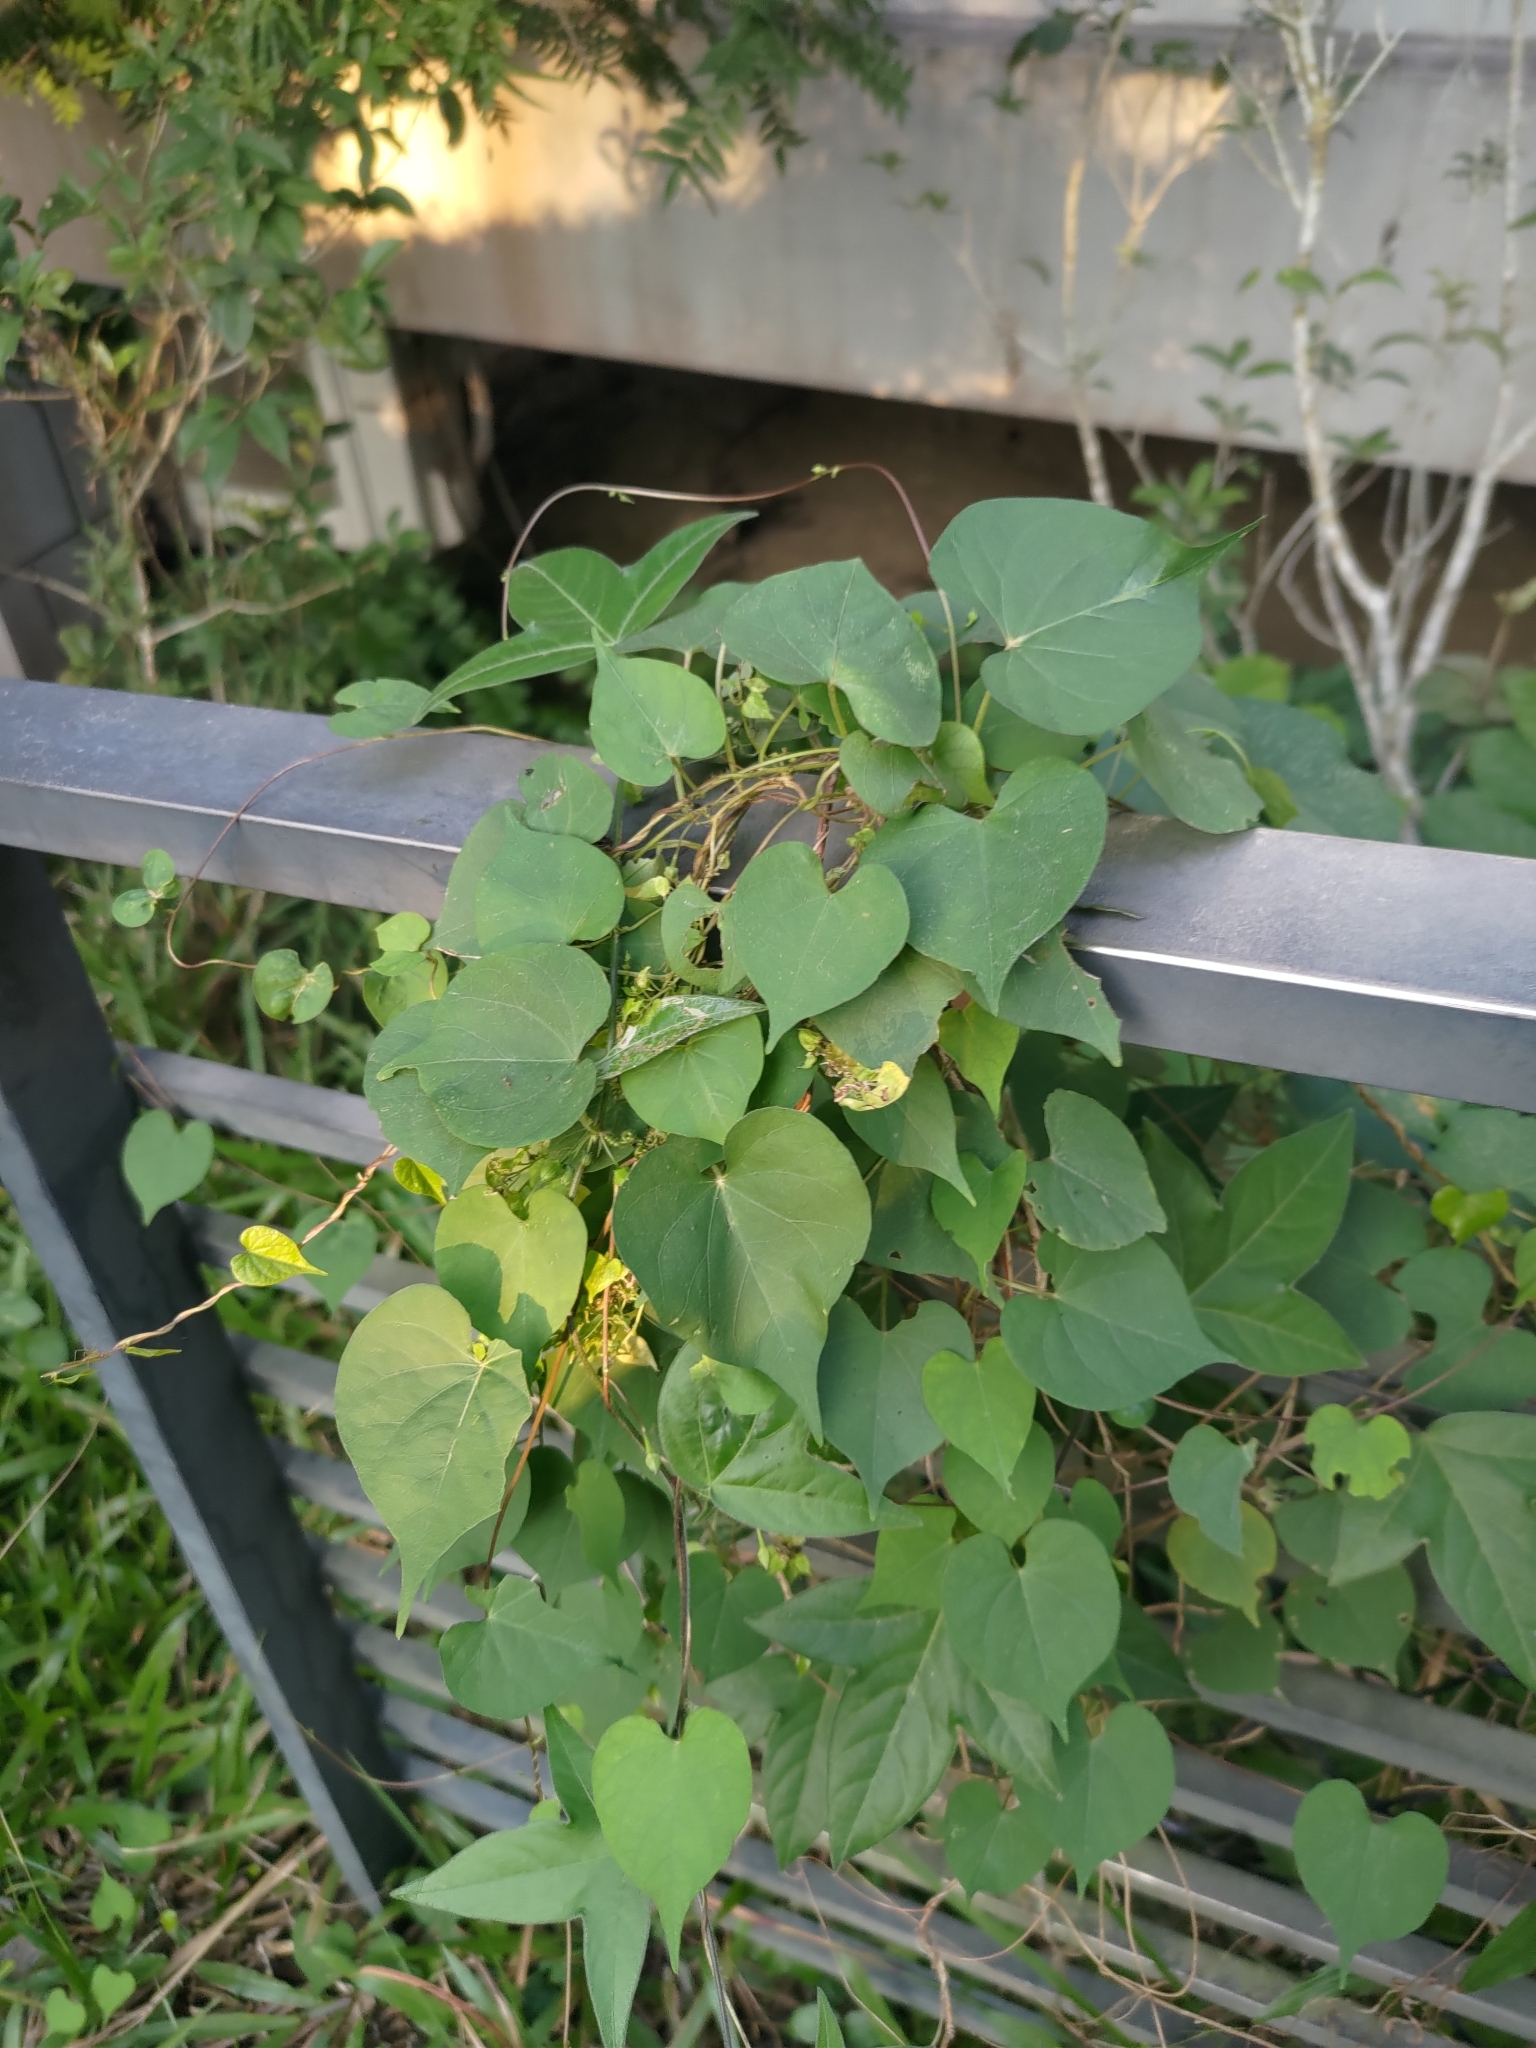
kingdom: Plantae
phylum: Tracheophyta
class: Magnoliopsida
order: Solanales
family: Convolvulaceae
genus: Ipomoea
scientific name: Ipomoea obscura
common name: Obscure morning-glory
